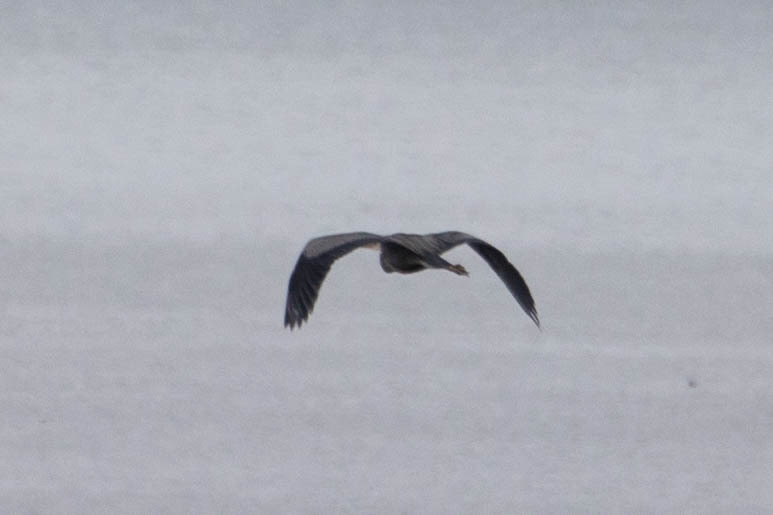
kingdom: Animalia
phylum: Chordata
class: Aves
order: Pelecaniformes
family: Ardeidae
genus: Ardea
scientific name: Ardea herodias
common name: Great blue heron
